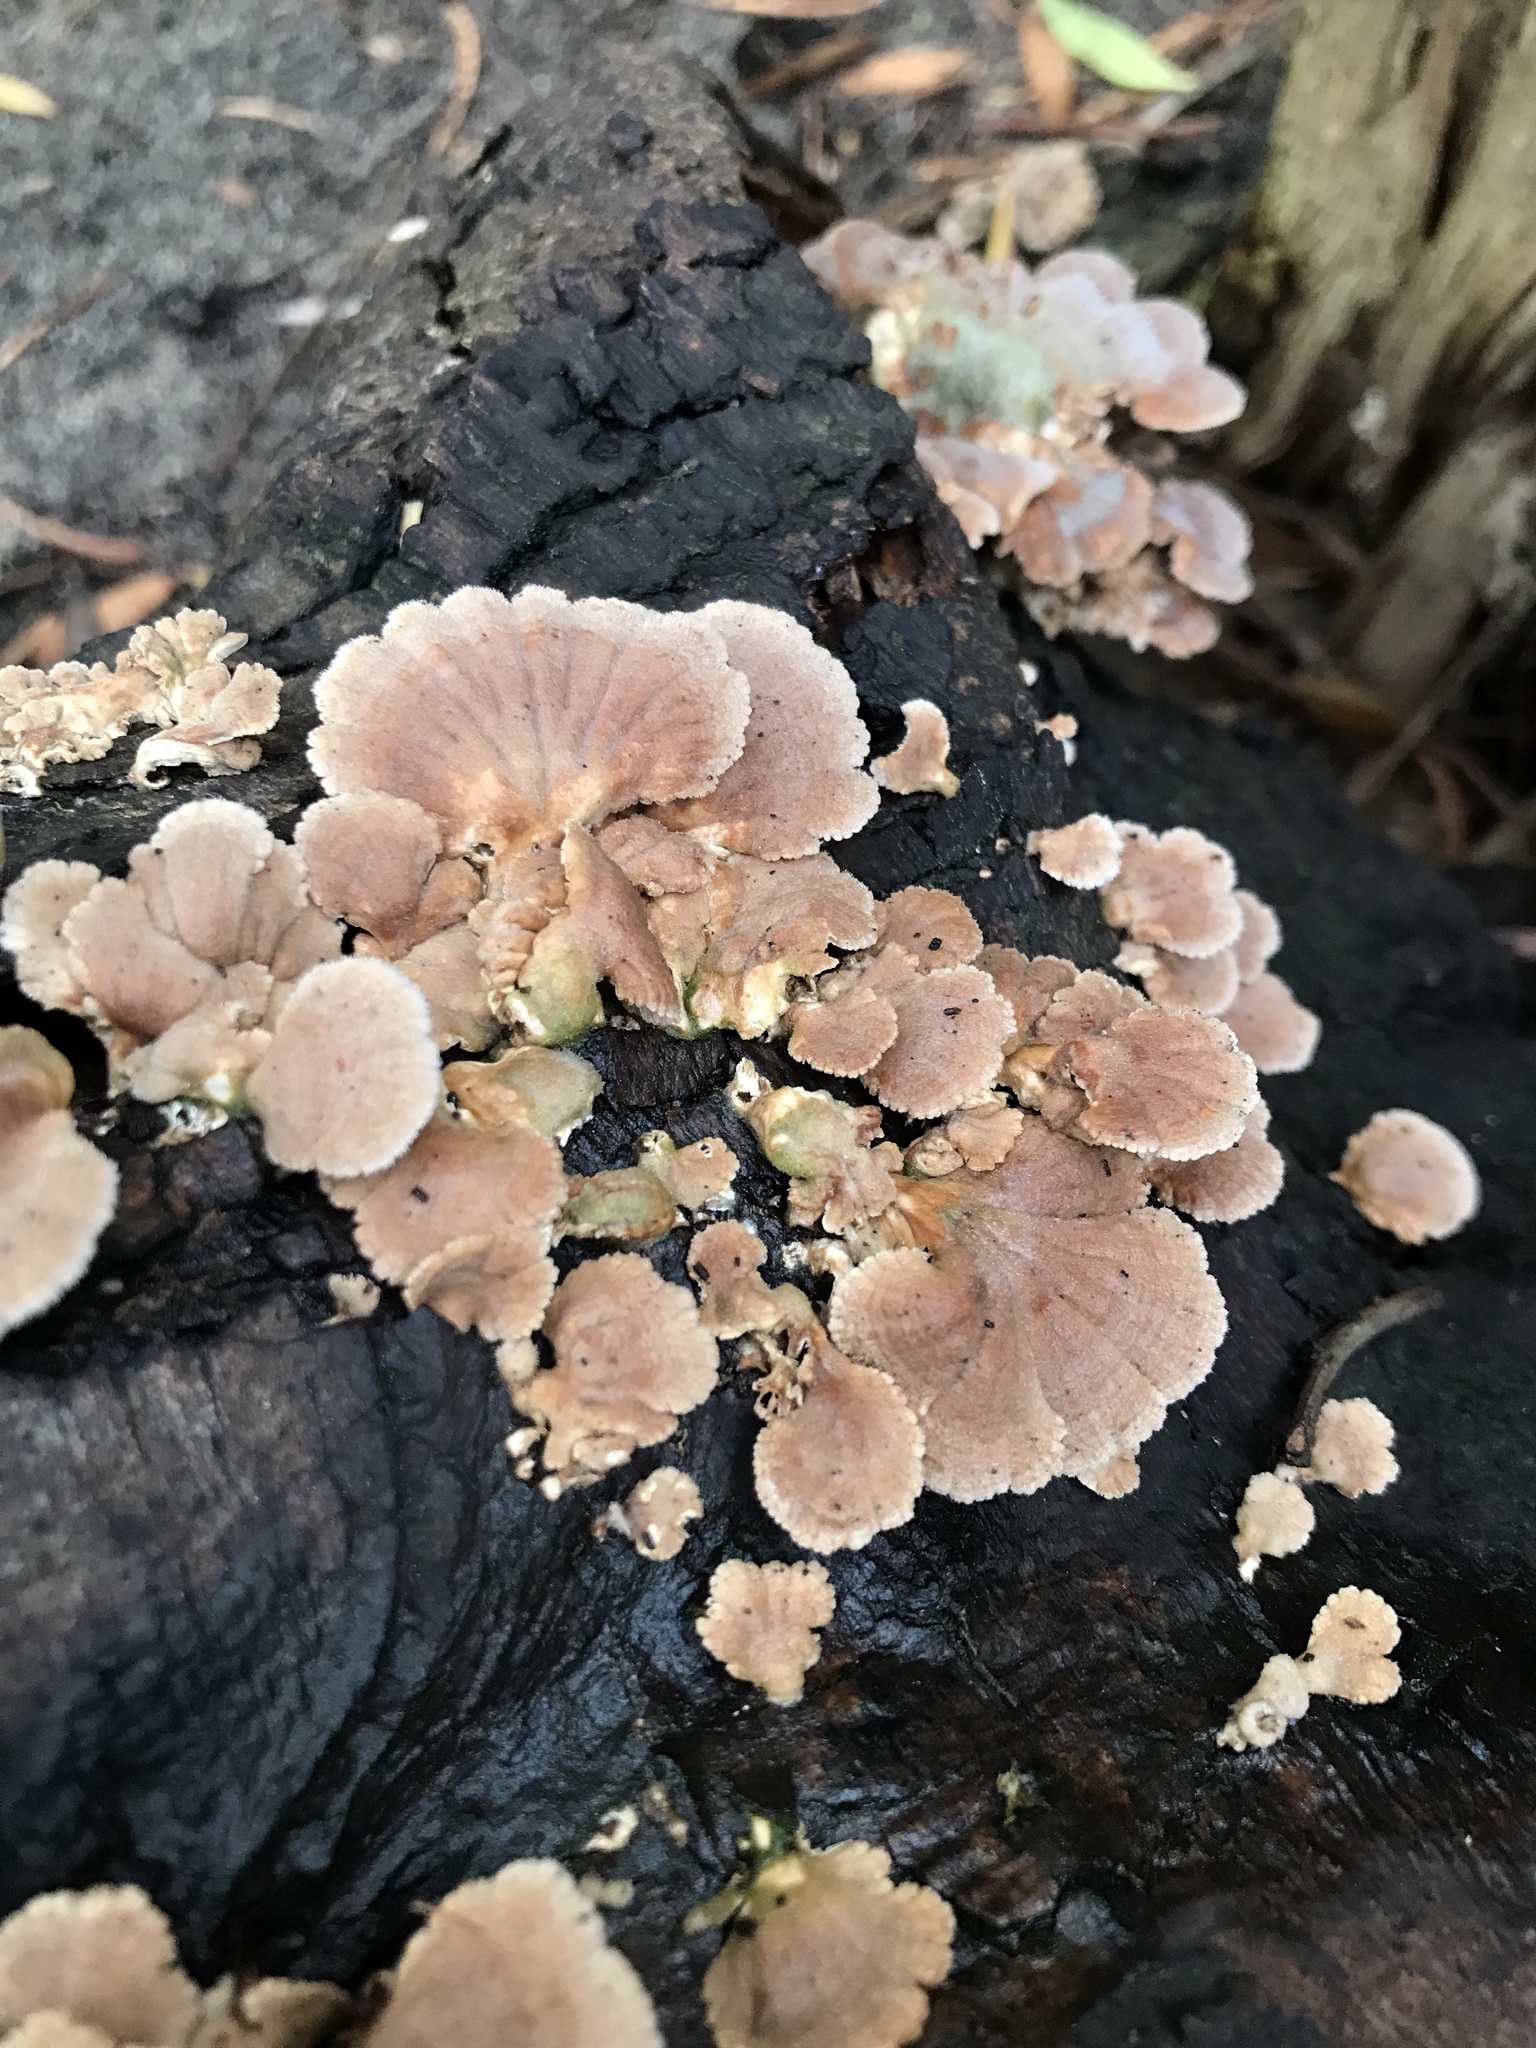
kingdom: Fungi
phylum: Basidiomycota
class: Agaricomycetes
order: Agaricales
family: Schizophyllaceae
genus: Schizophyllum
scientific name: Schizophyllum commune
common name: Common porecrust
